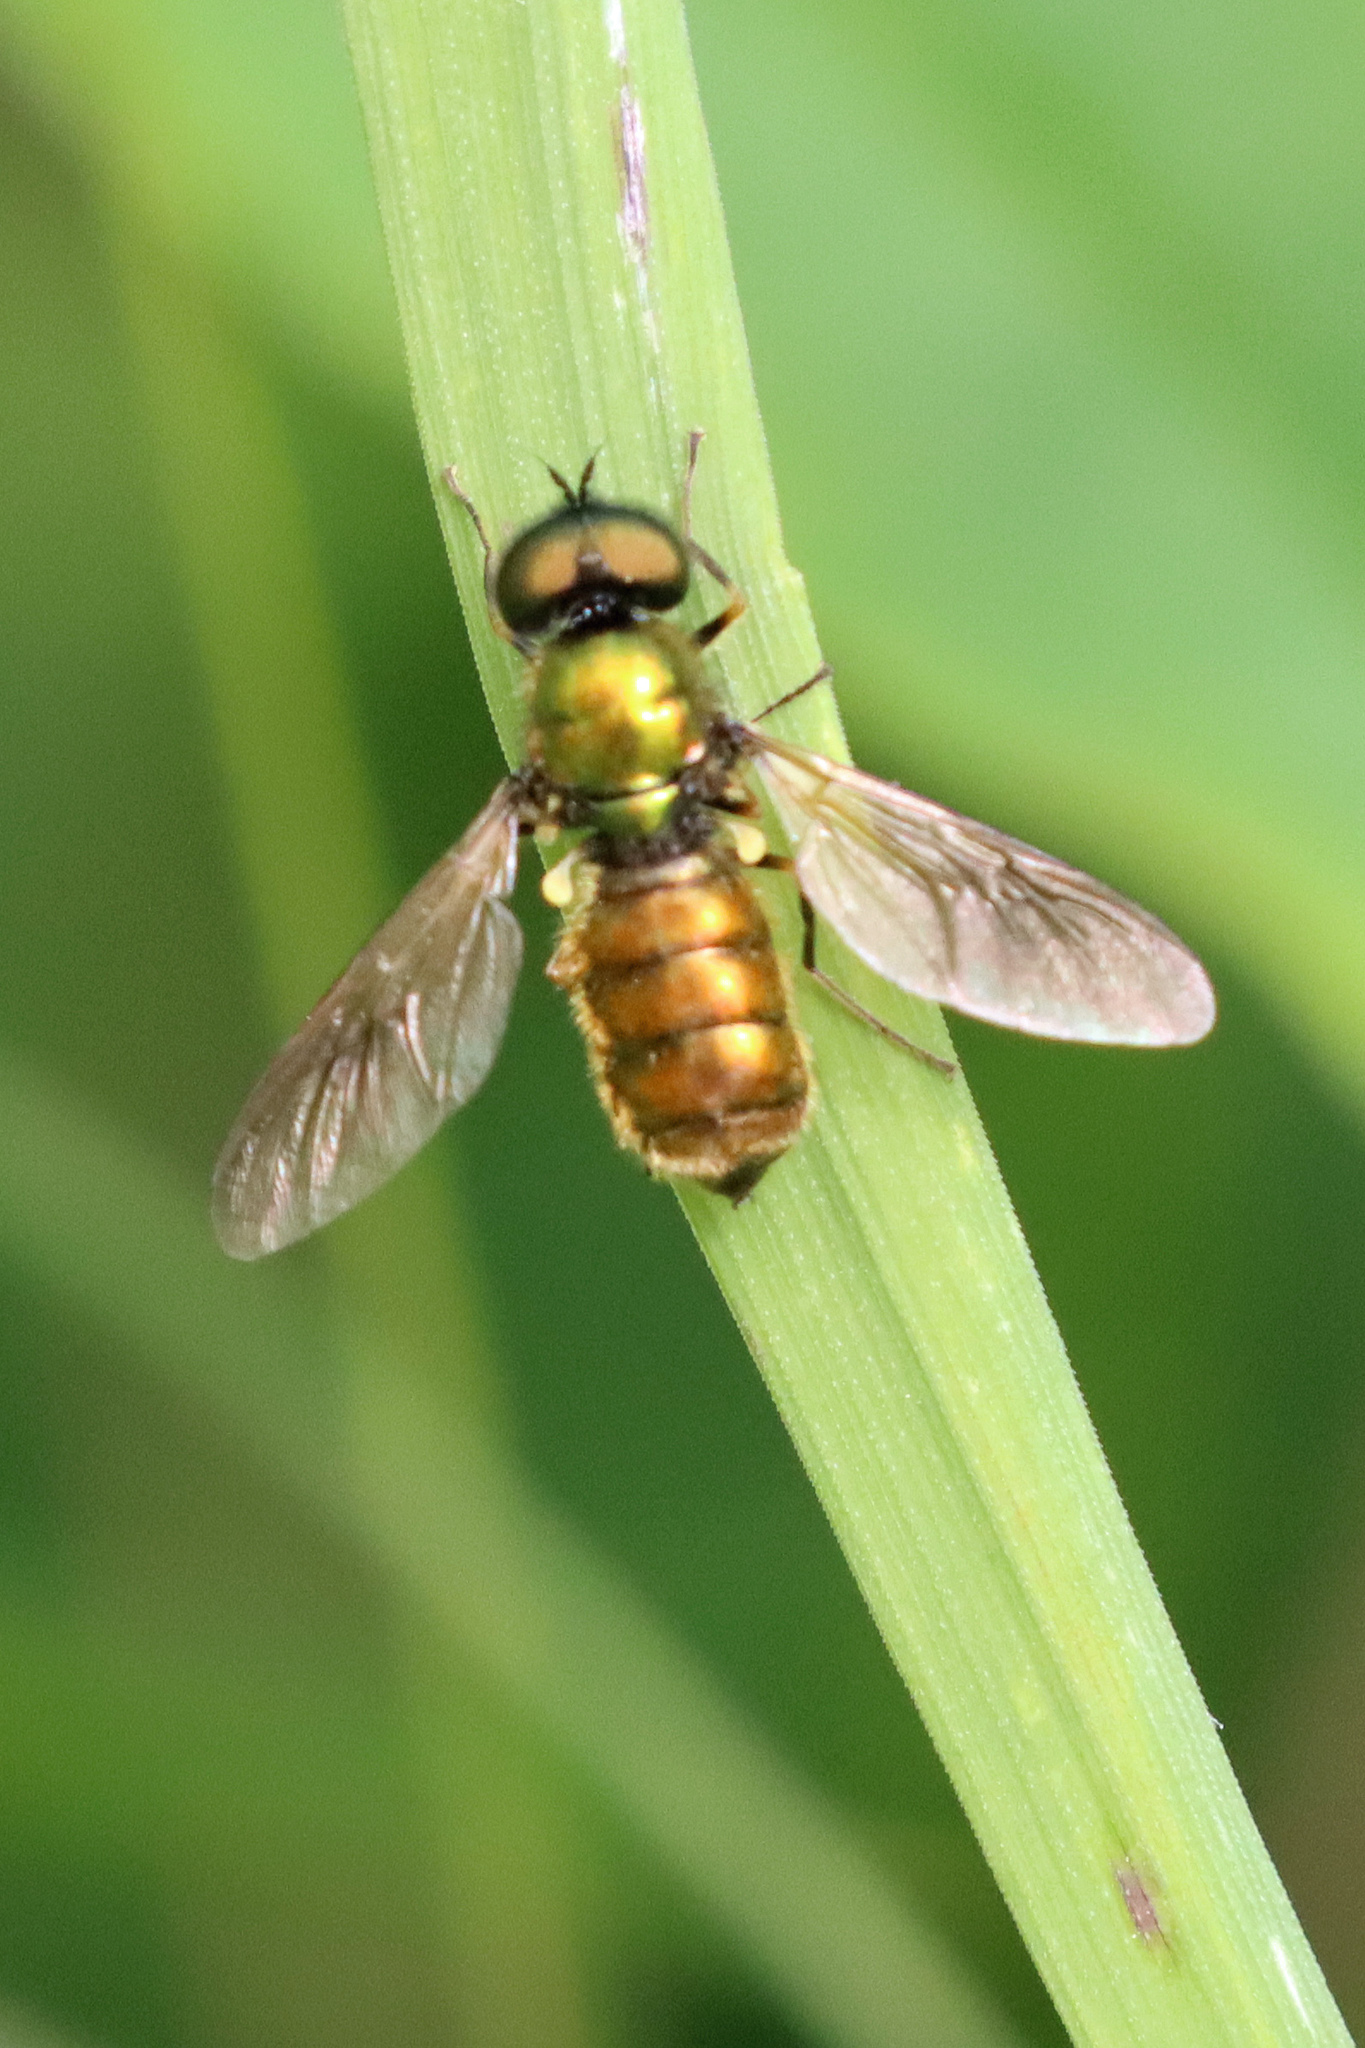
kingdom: Animalia
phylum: Arthropoda
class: Insecta
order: Diptera
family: Stratiomyidae
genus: Chloromyia
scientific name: Chloromyia formosa
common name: Soldier fly
